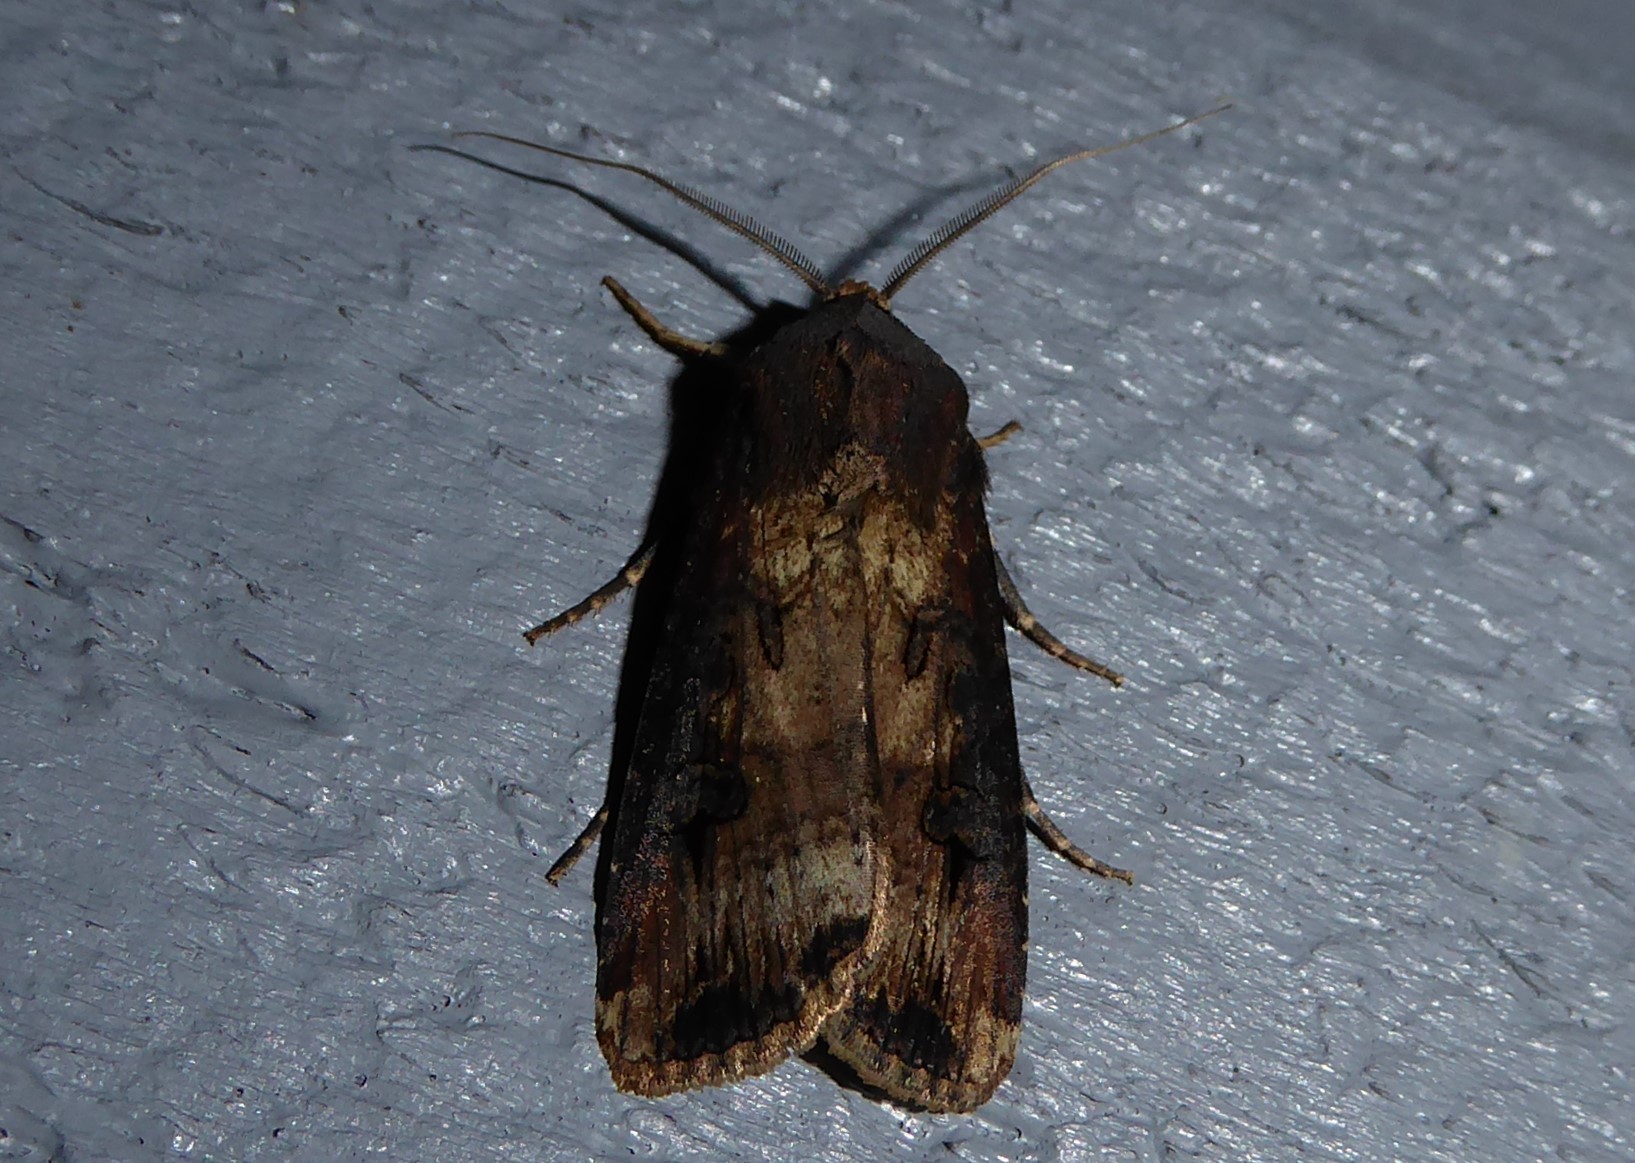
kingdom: Animalia
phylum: Arthropoda
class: Insecta
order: Lepidoptera
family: Noctuidae
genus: Agrotis
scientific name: Agrotis ipsilon
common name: Dark sword-grass
